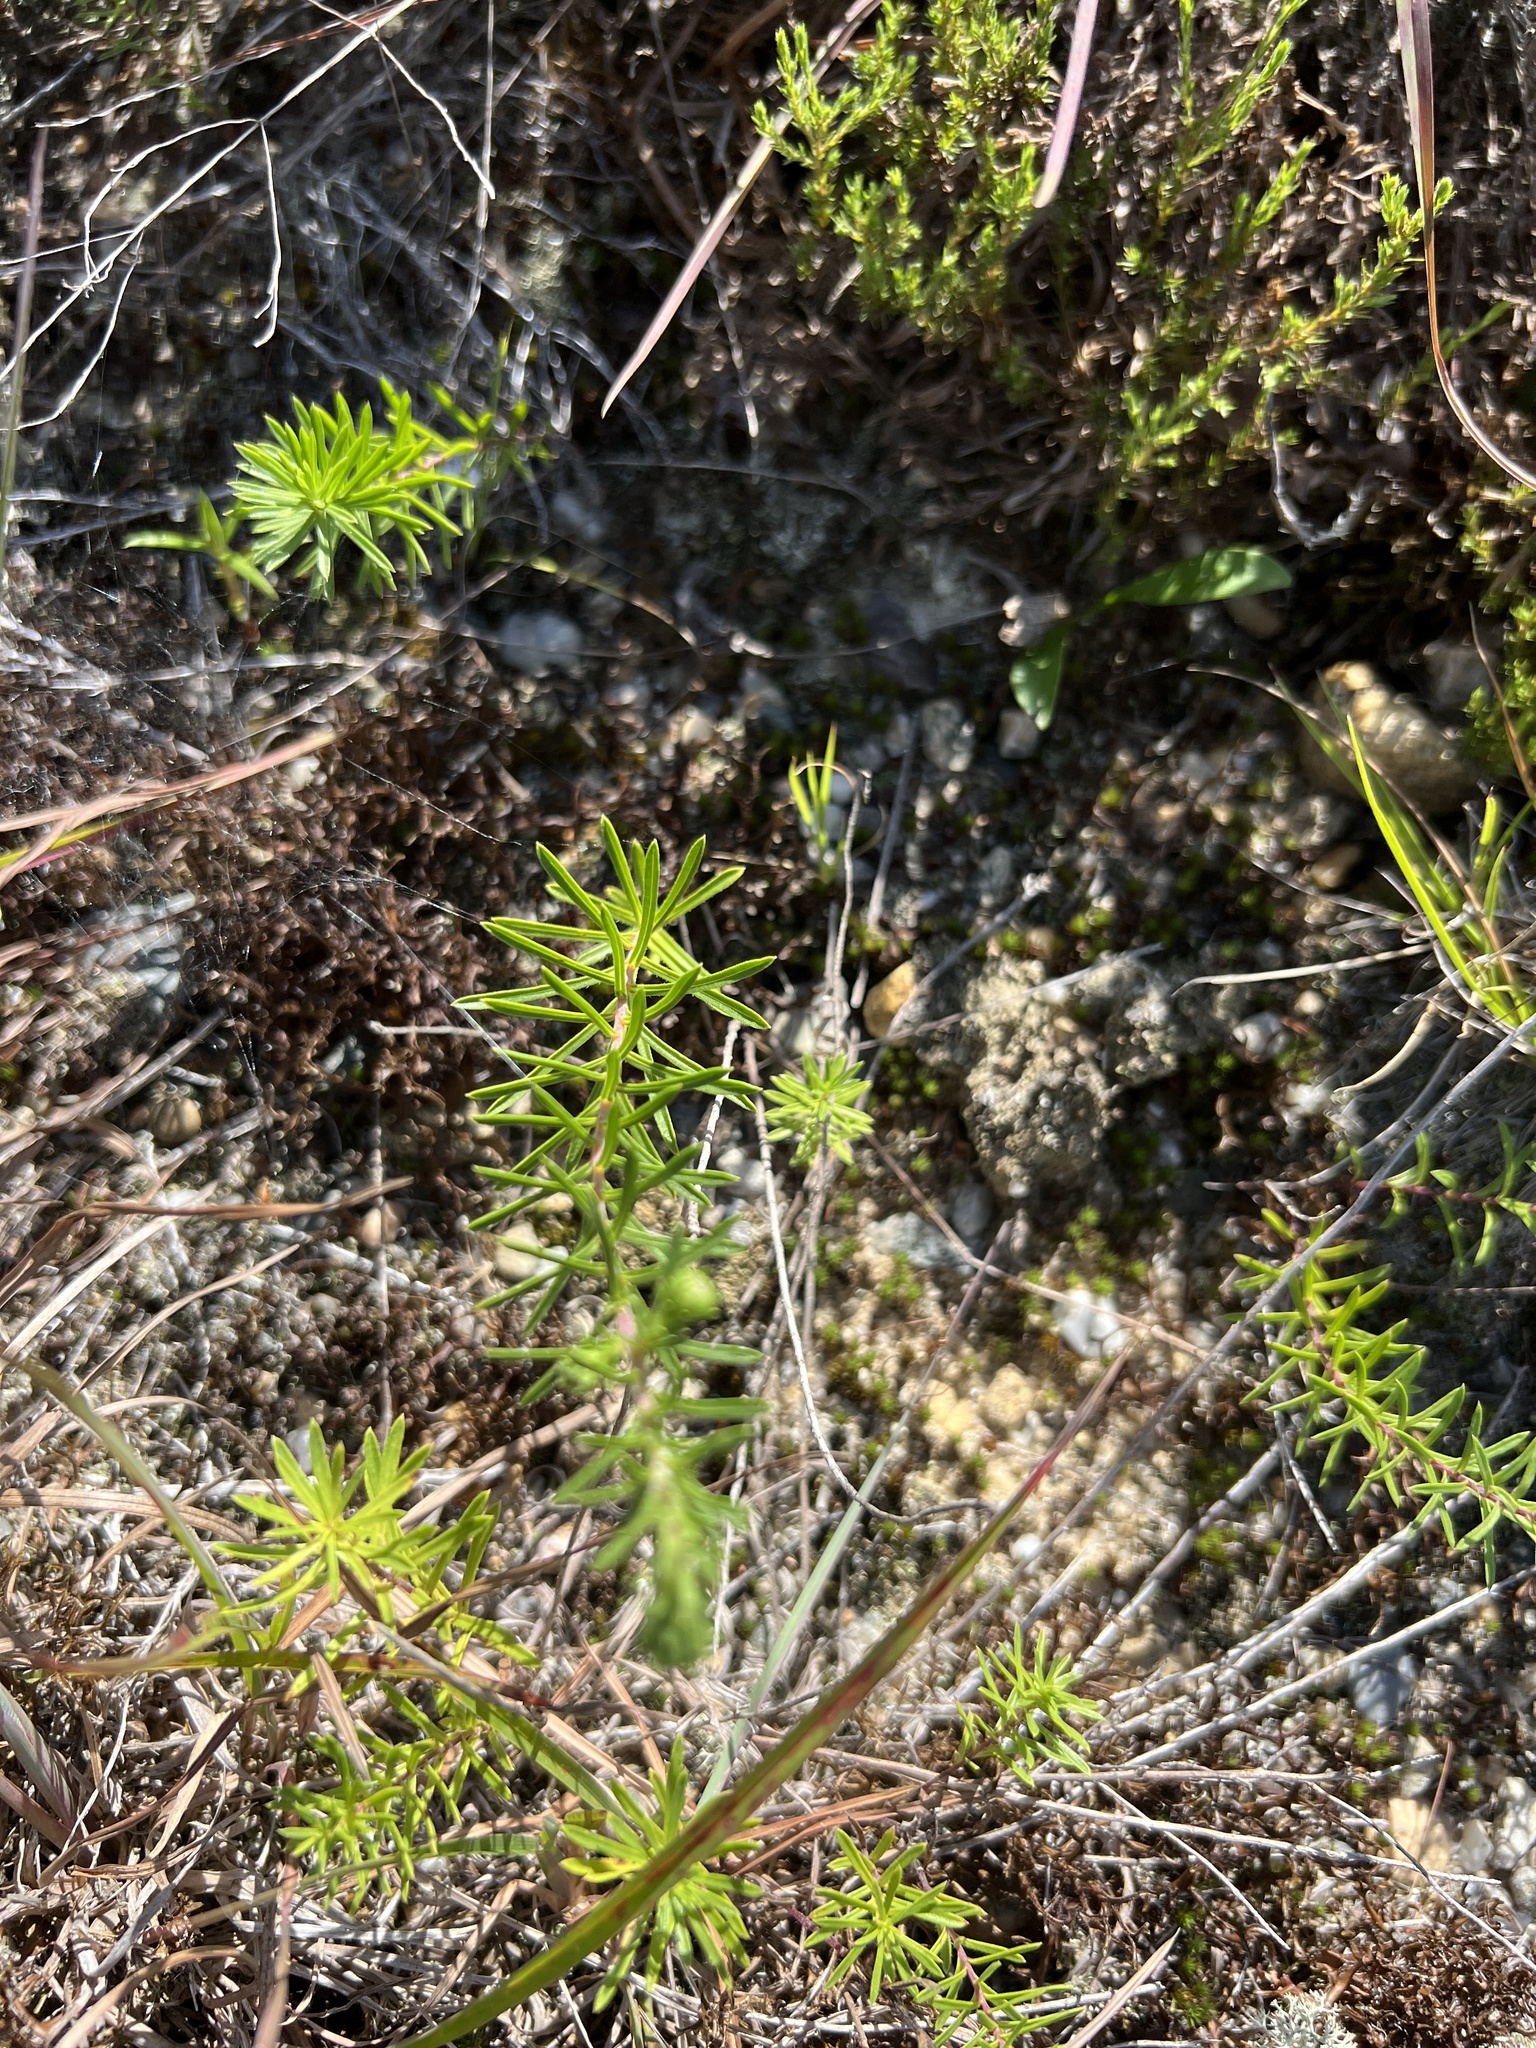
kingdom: Plantae
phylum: Tracheophyta
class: Magnoliopsida
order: Asterales
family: Asteraceae
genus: Ionactis
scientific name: Ionactis linariifolia
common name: Flax-leaf aster
